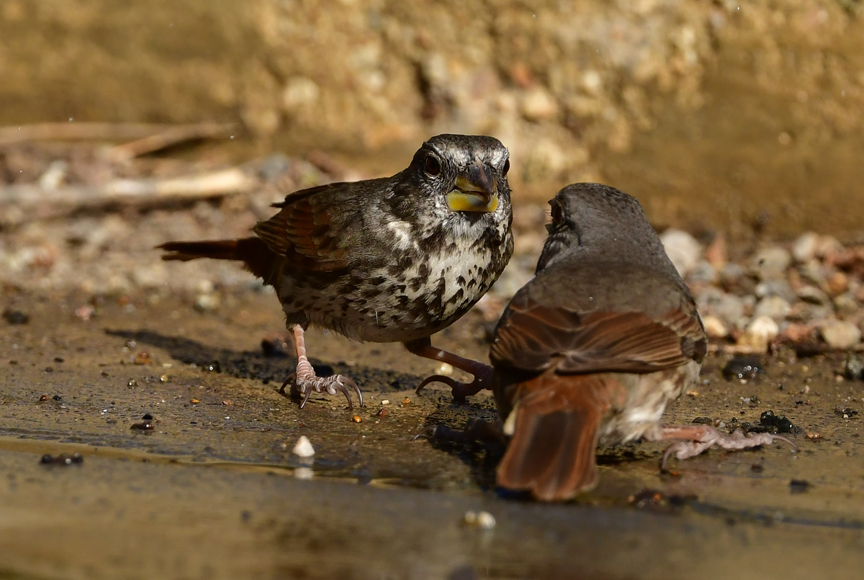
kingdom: Animalia
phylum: Chordata
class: Aves
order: Passeriformes
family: Passerellidae
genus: Passerella
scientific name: Passerella iliaca
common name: Fox sparrow
